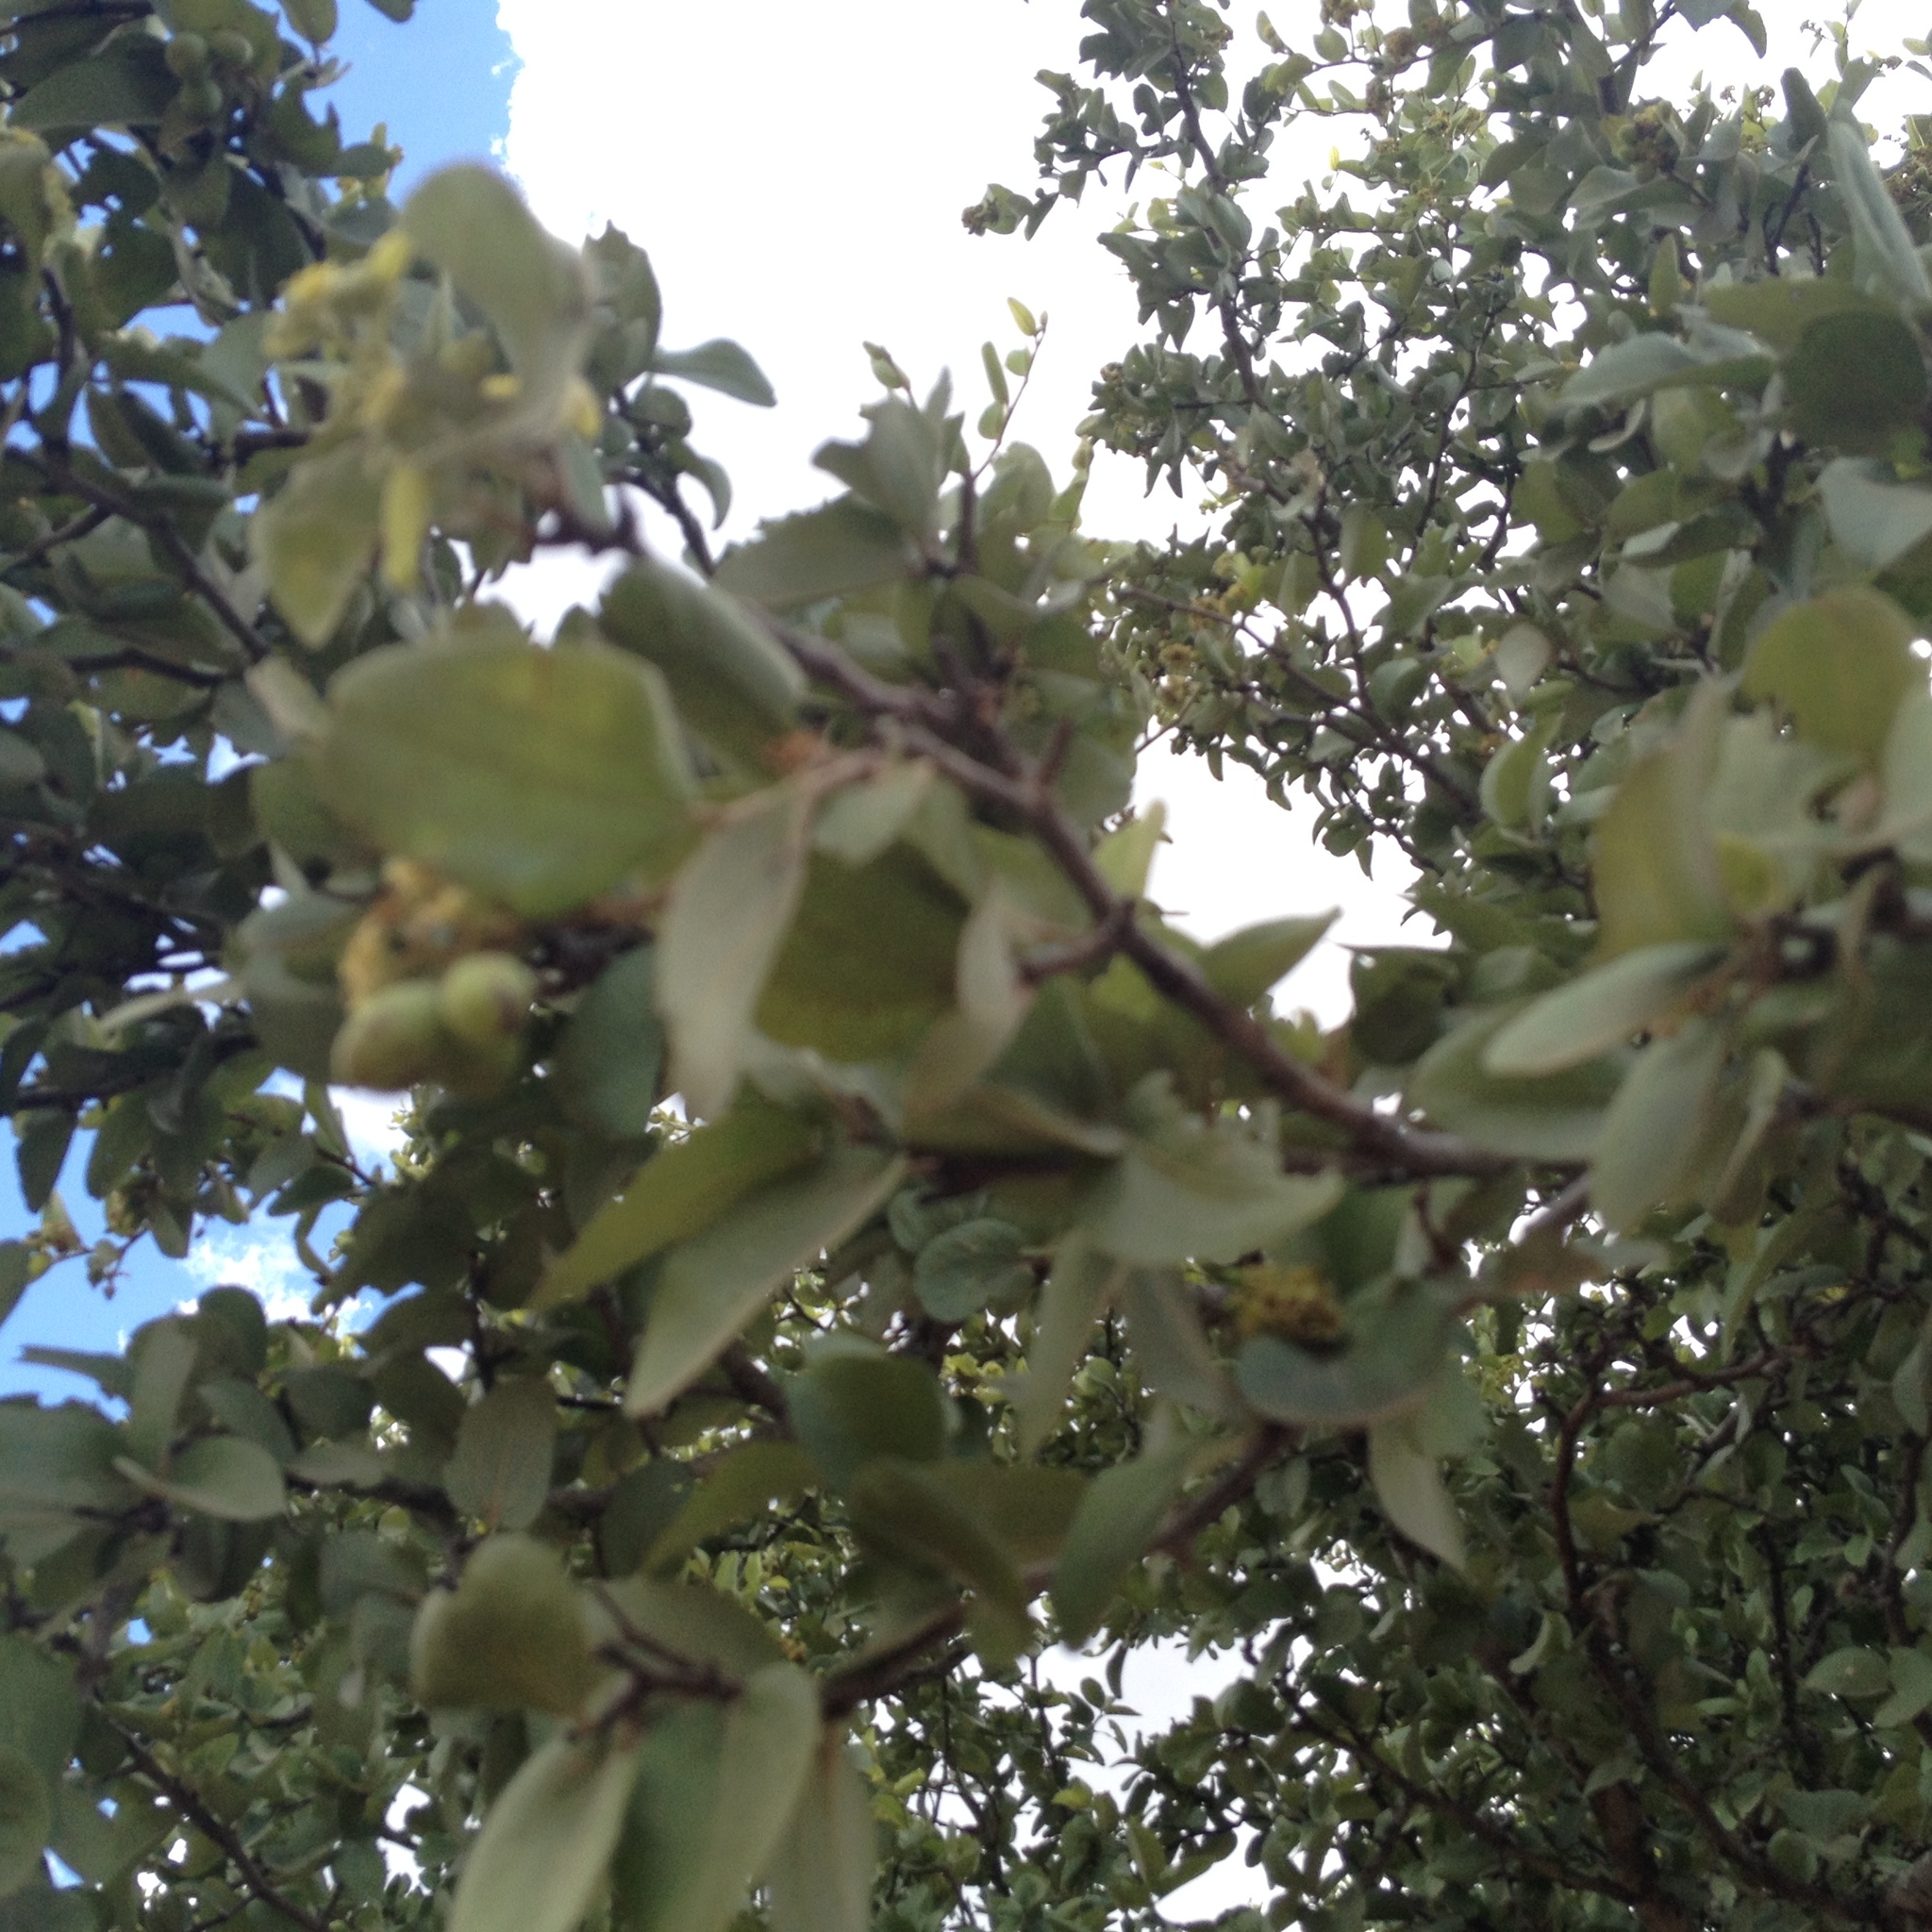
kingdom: Plantae
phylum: Tracheophyta
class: Magnoliopsida
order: Rosales
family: Rhamnaceae
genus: Sarcomphalus
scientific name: Sarcomphalus mistol
